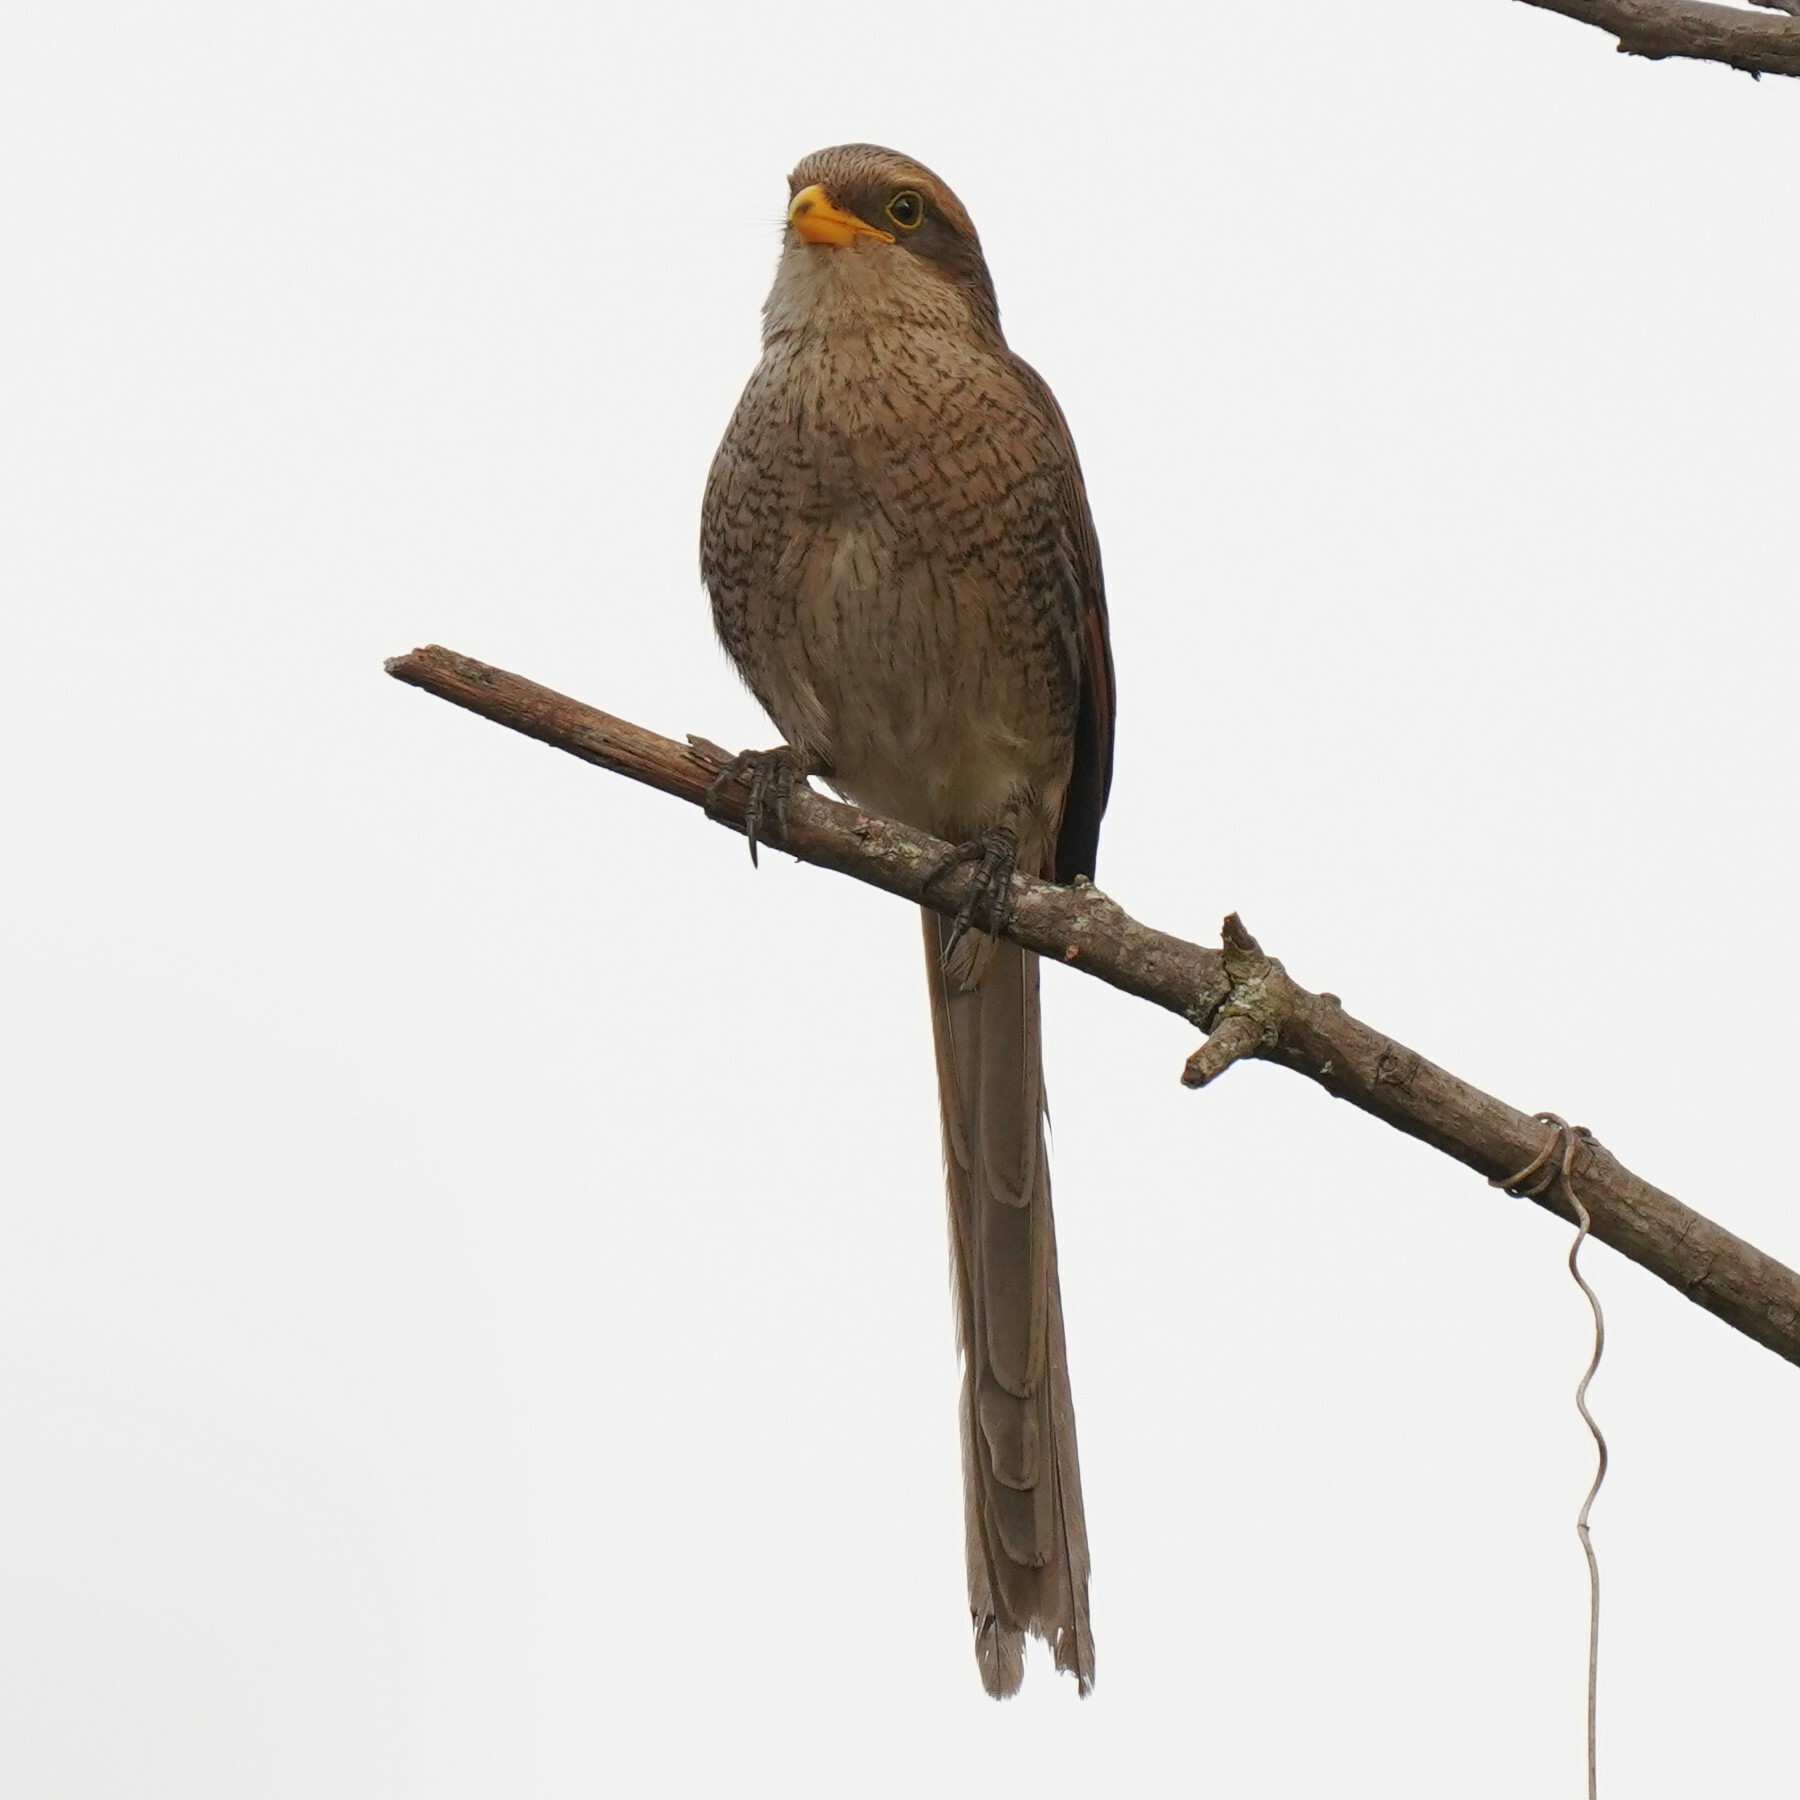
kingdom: Animalia
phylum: Chordata
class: Aves
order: Passeriformes
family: Laniidae
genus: Corvinella
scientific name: Corvinella corvina
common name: Yellow-billed shrike
